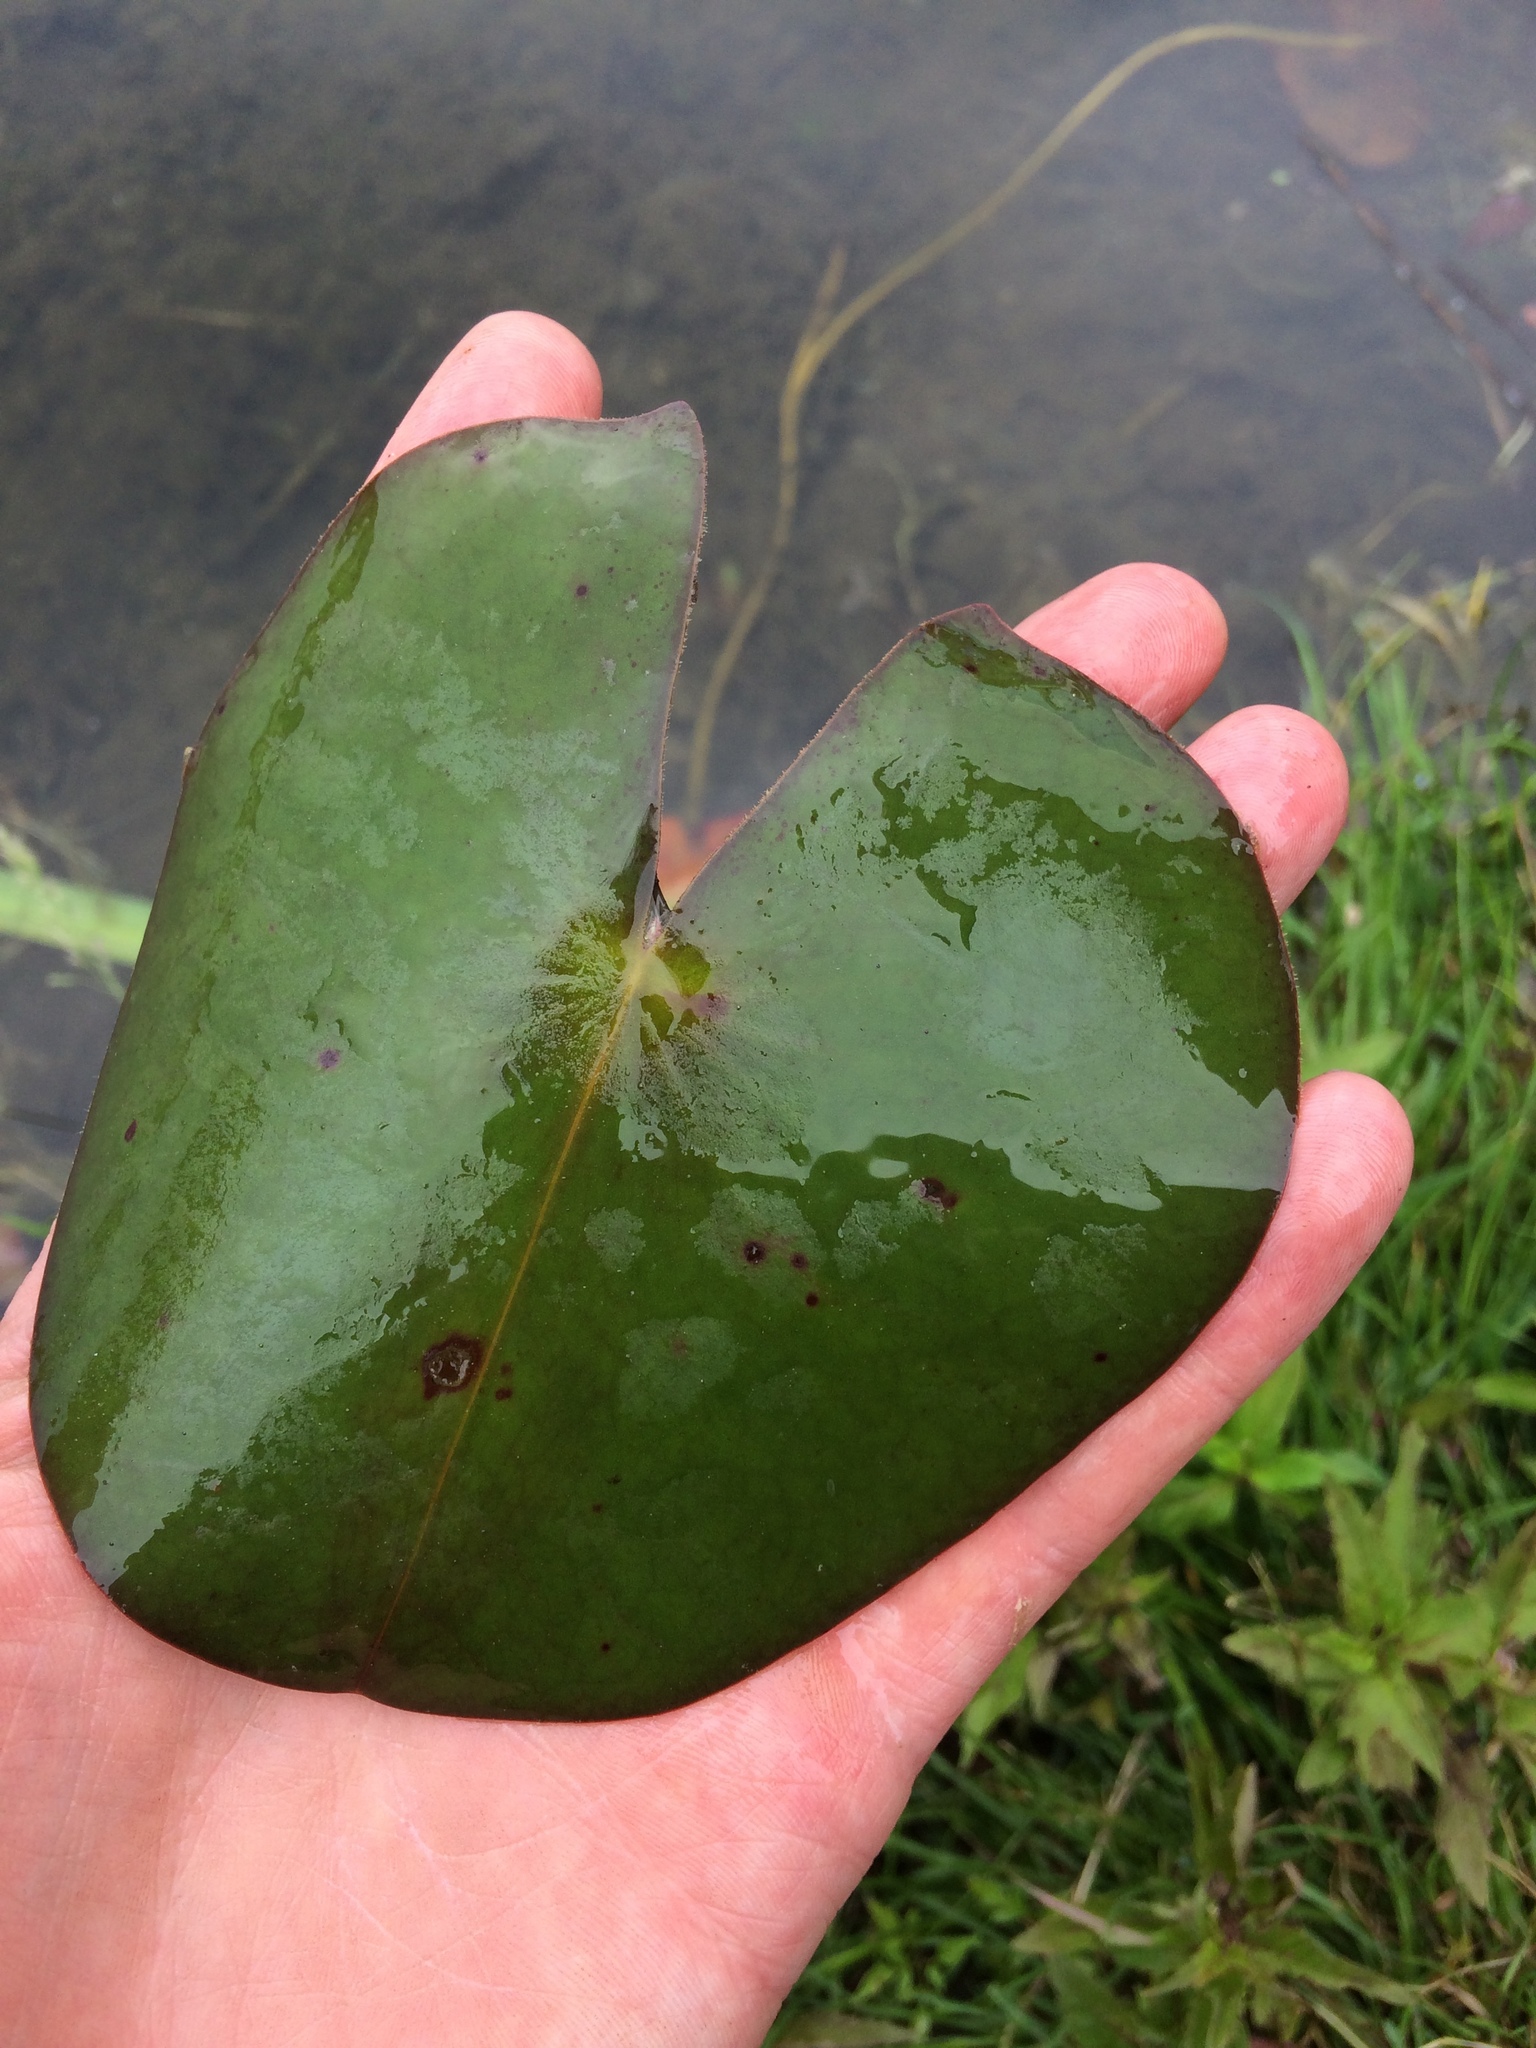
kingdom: Plantae
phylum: Tracheophyta
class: Magnoliopsida
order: Nymphaeales
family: Nymphaeaceae
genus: Nymphaea
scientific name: Nymphaea odorata
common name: Fragrant water-lily
